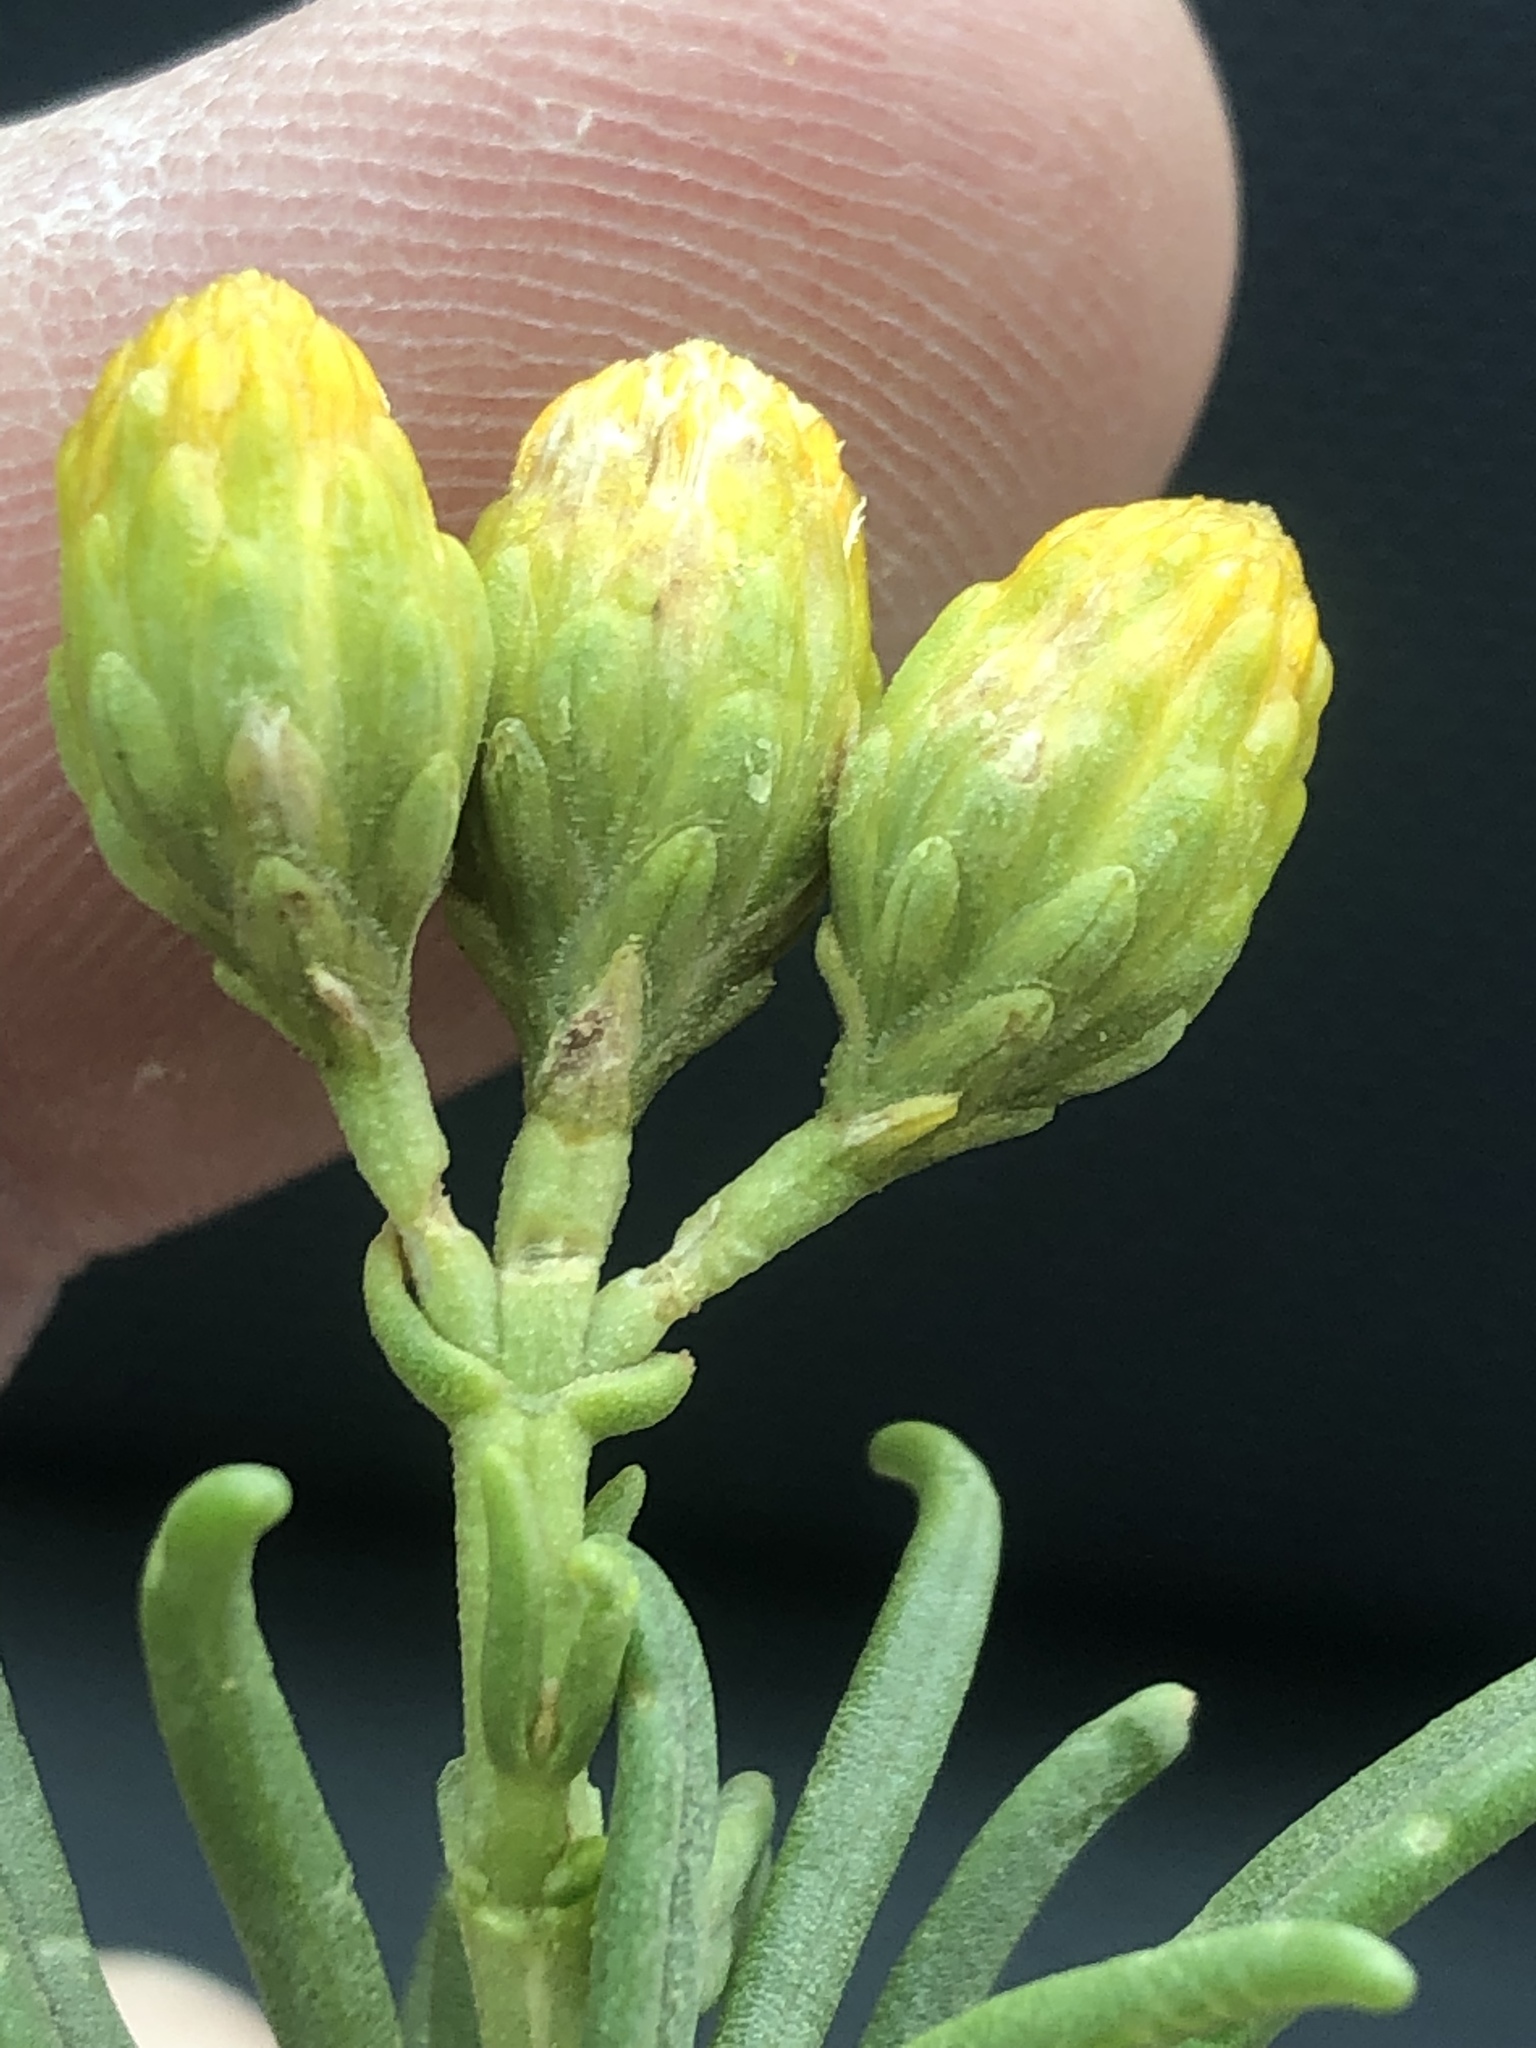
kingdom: Plantae
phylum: Tracheophyta
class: Magnoliopsida
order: Asterales
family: Asteraceae
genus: Pteronia
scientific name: Pteronia pallens
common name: Scholtzbush
